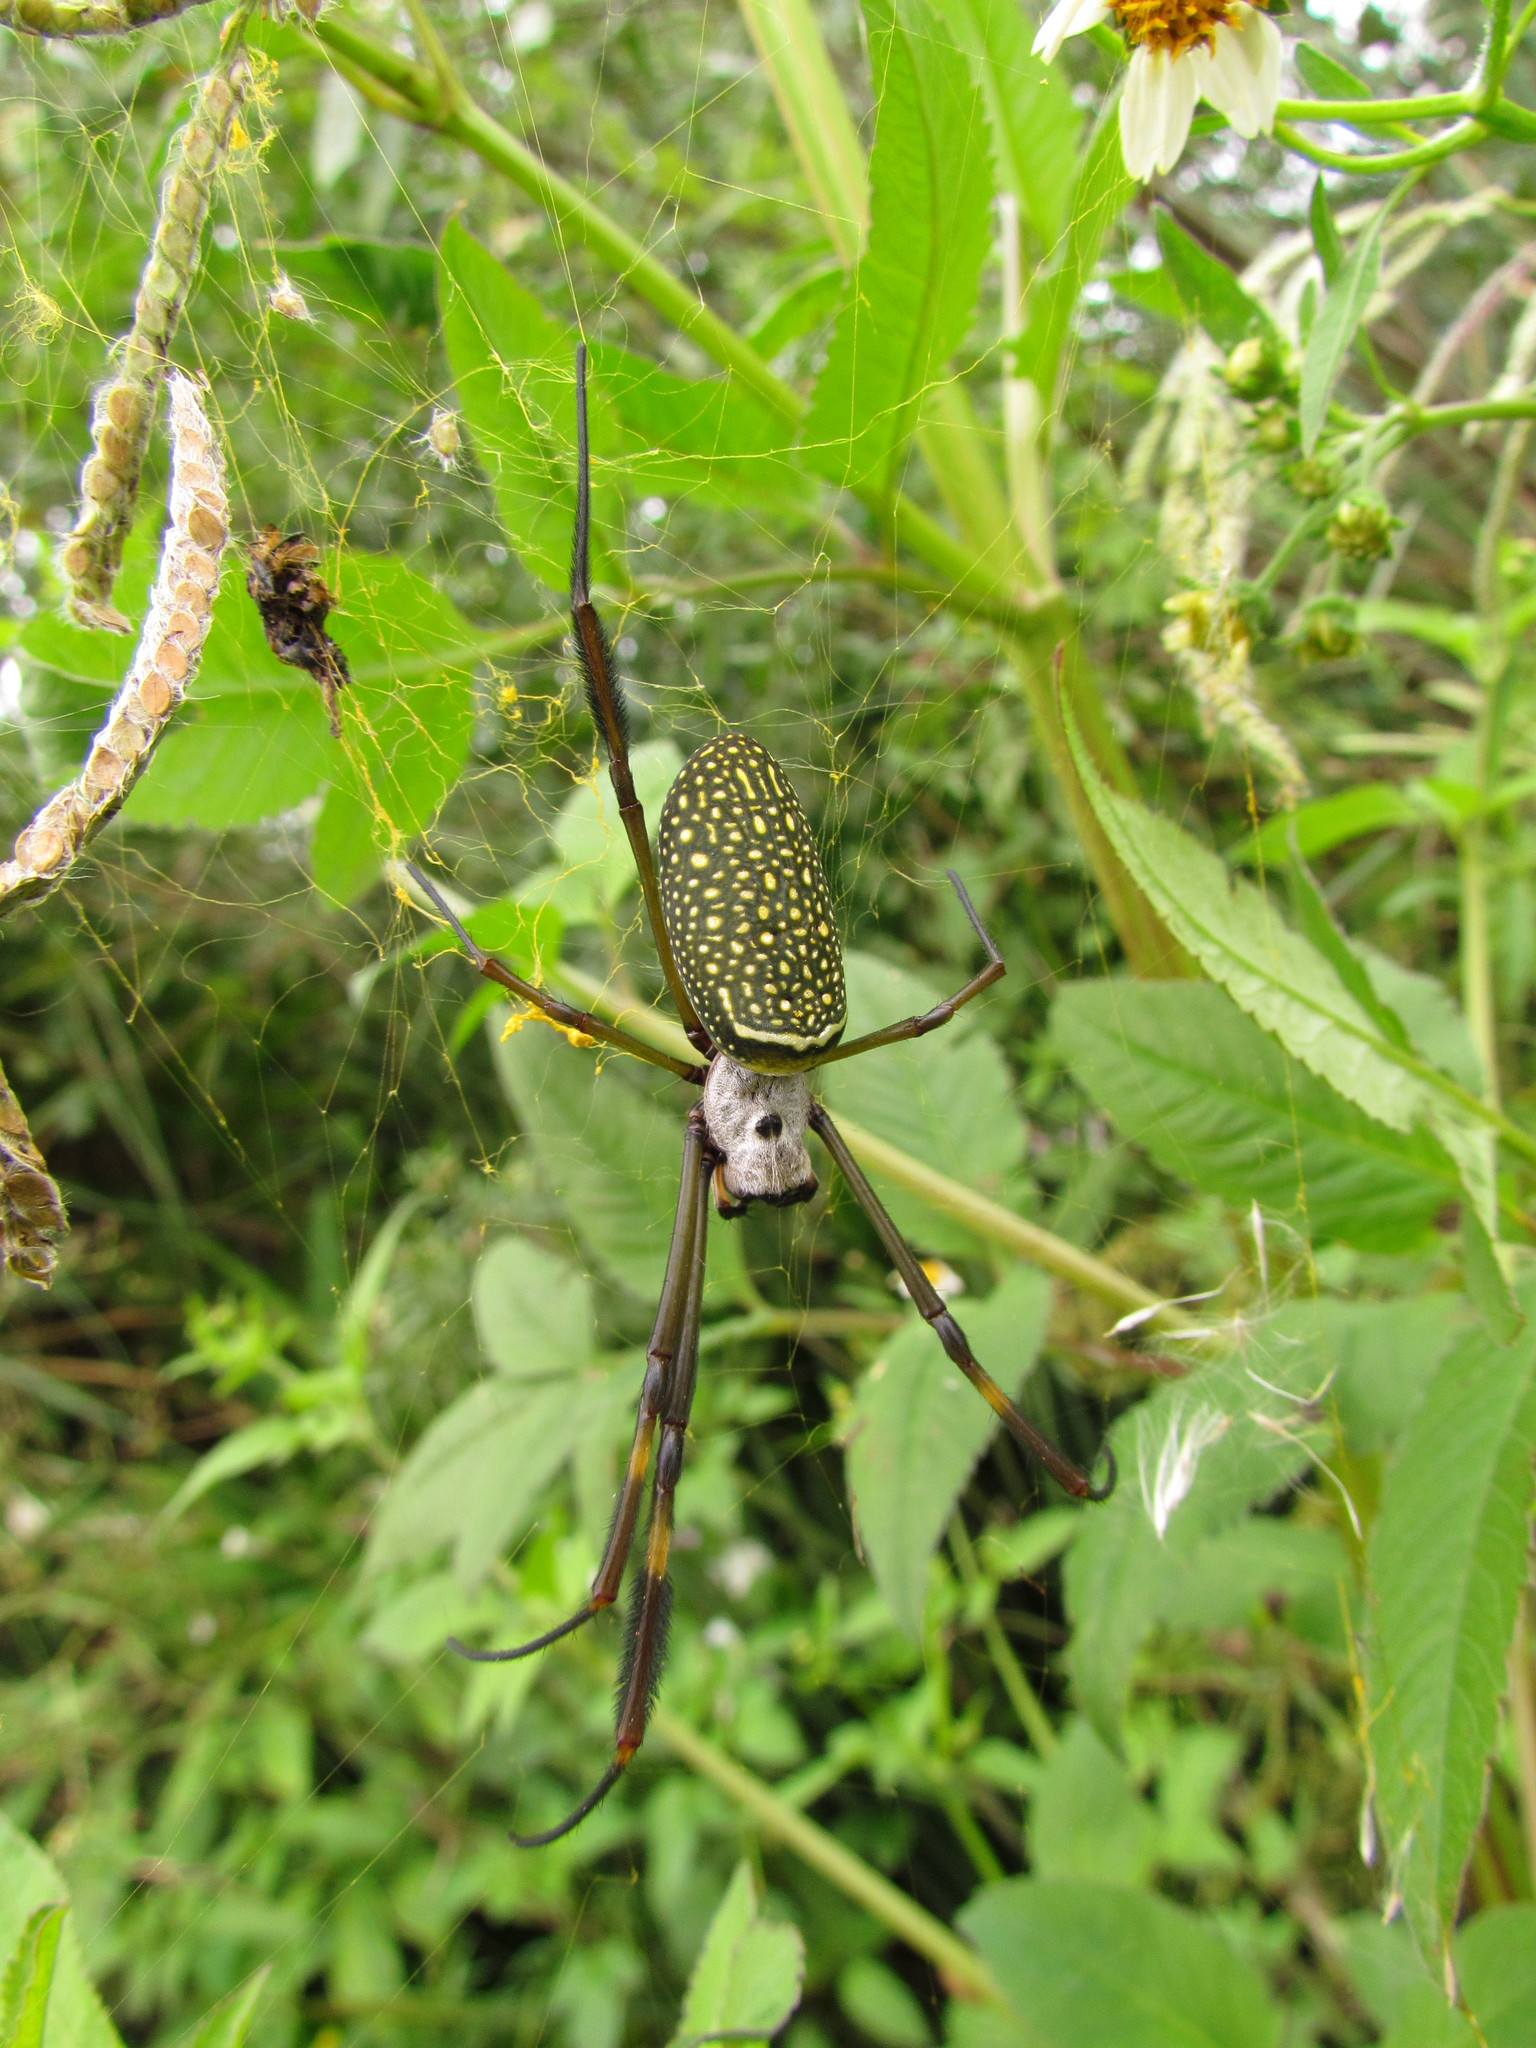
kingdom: Animalia
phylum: Arthropoda
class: Arachnida
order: Araneae
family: Araneidae
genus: Trichonephila
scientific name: Trichonephila clavipes
